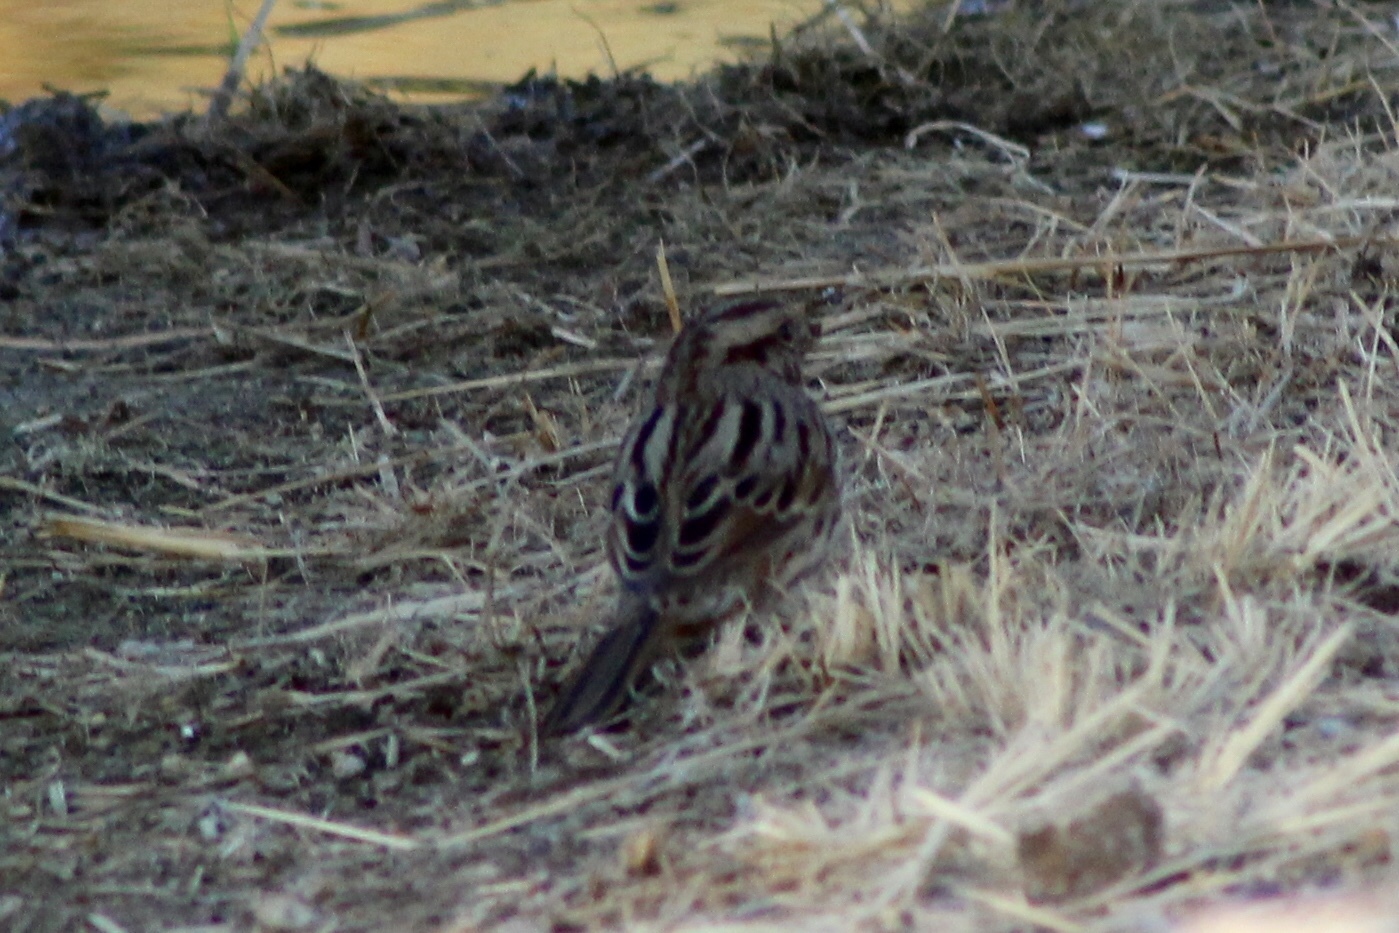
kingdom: Animalia
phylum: Chordata
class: Aves
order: Passeriformes
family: Passerellidae
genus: Melospiza
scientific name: Melospiza melodia
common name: Song sparrow
